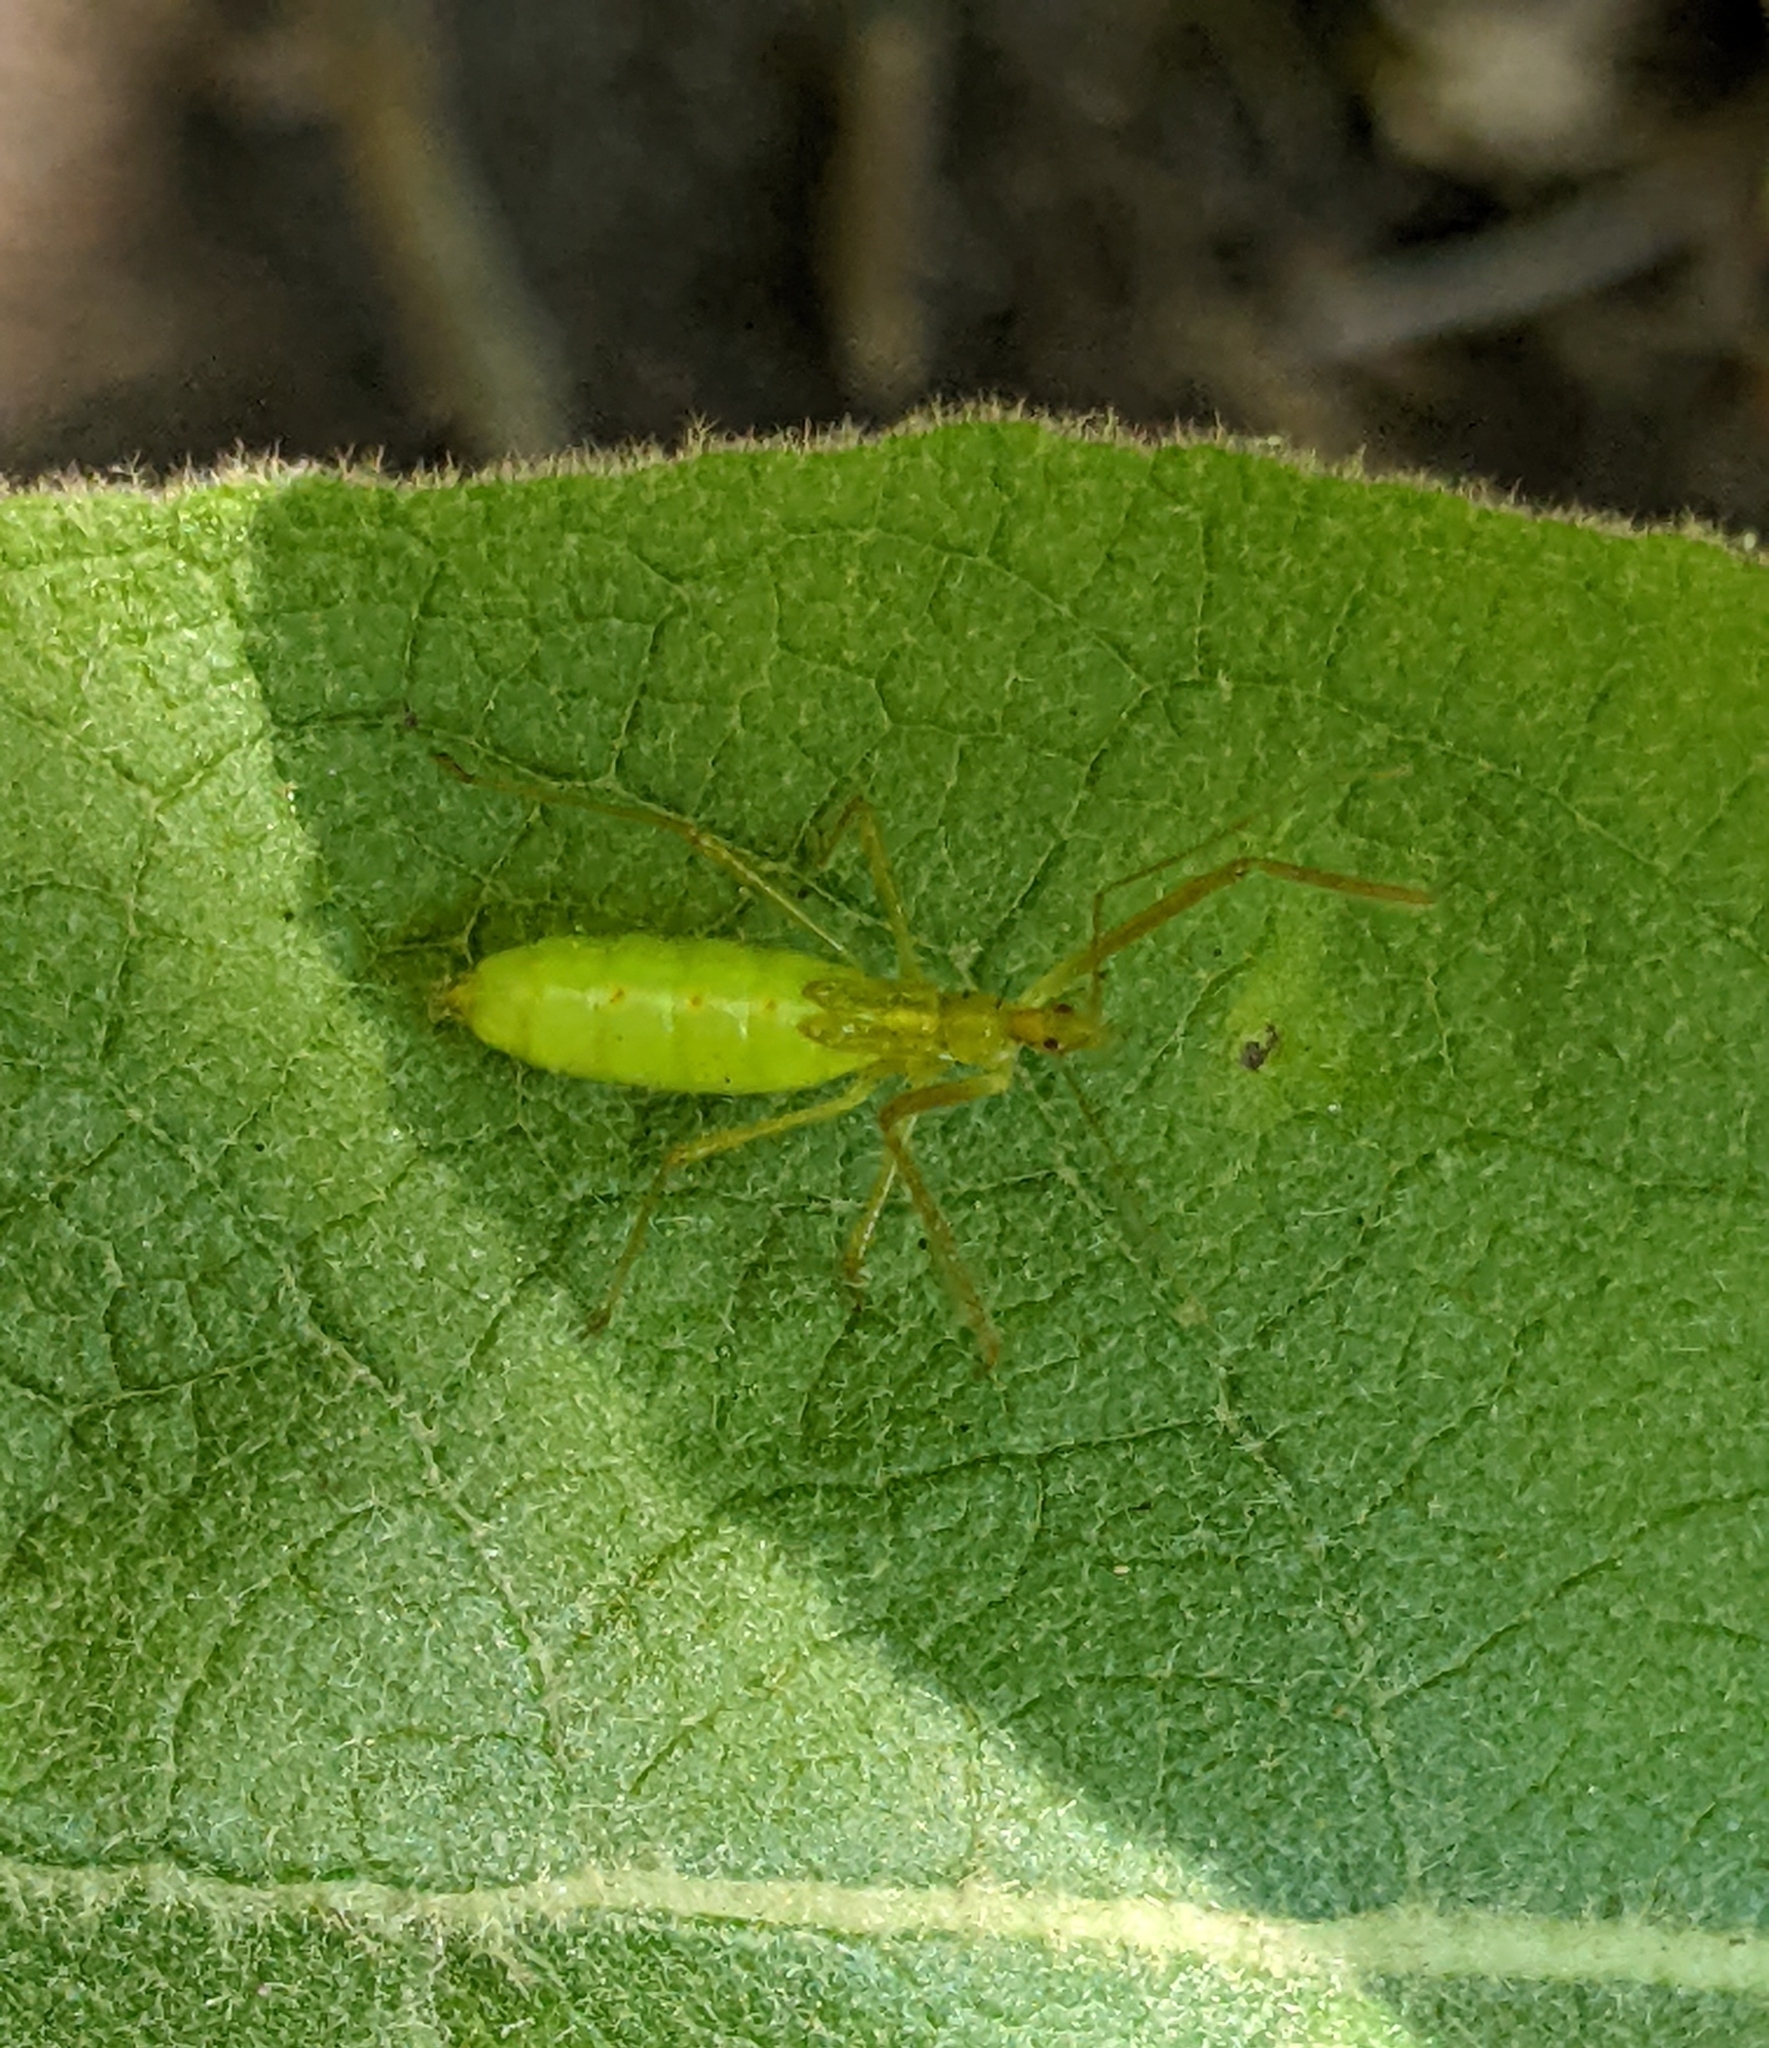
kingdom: Animalia
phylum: Arthropoda
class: Insecta
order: Hemiptera
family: Reduviidae
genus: Zelus
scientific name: Zelus luridus
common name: Pale green assassin bug
